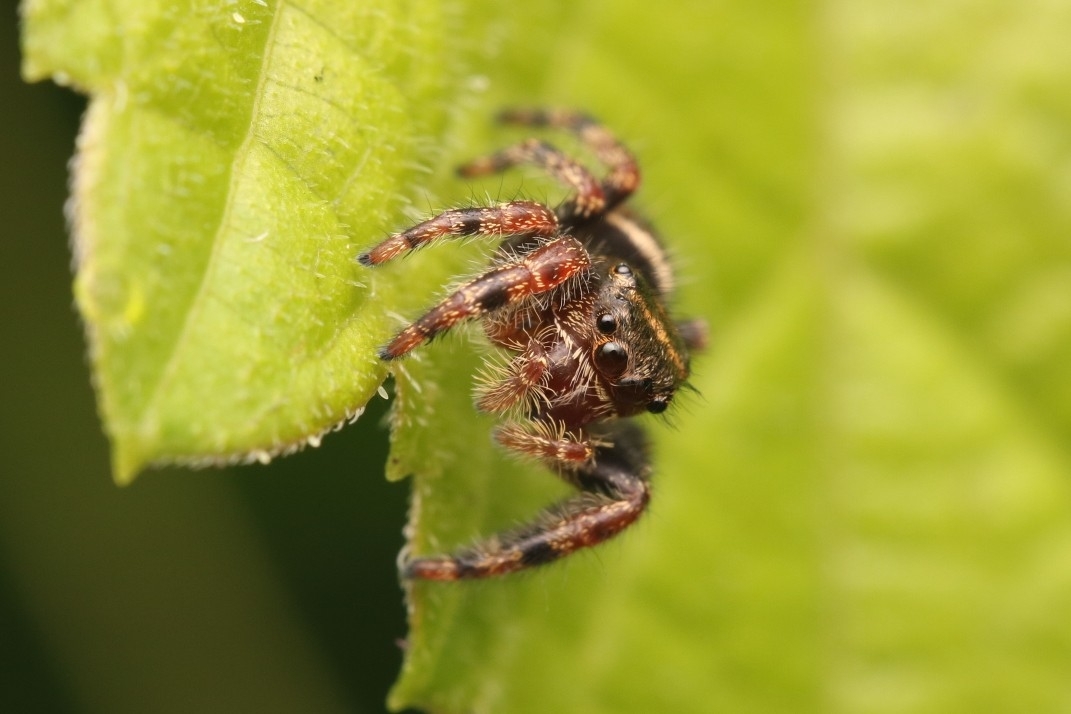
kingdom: Animalia
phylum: Arthropoda
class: Arachnida
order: Araneae
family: Salticidae
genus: Phidippus
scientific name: Phidippus audax
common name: Bold jumper
